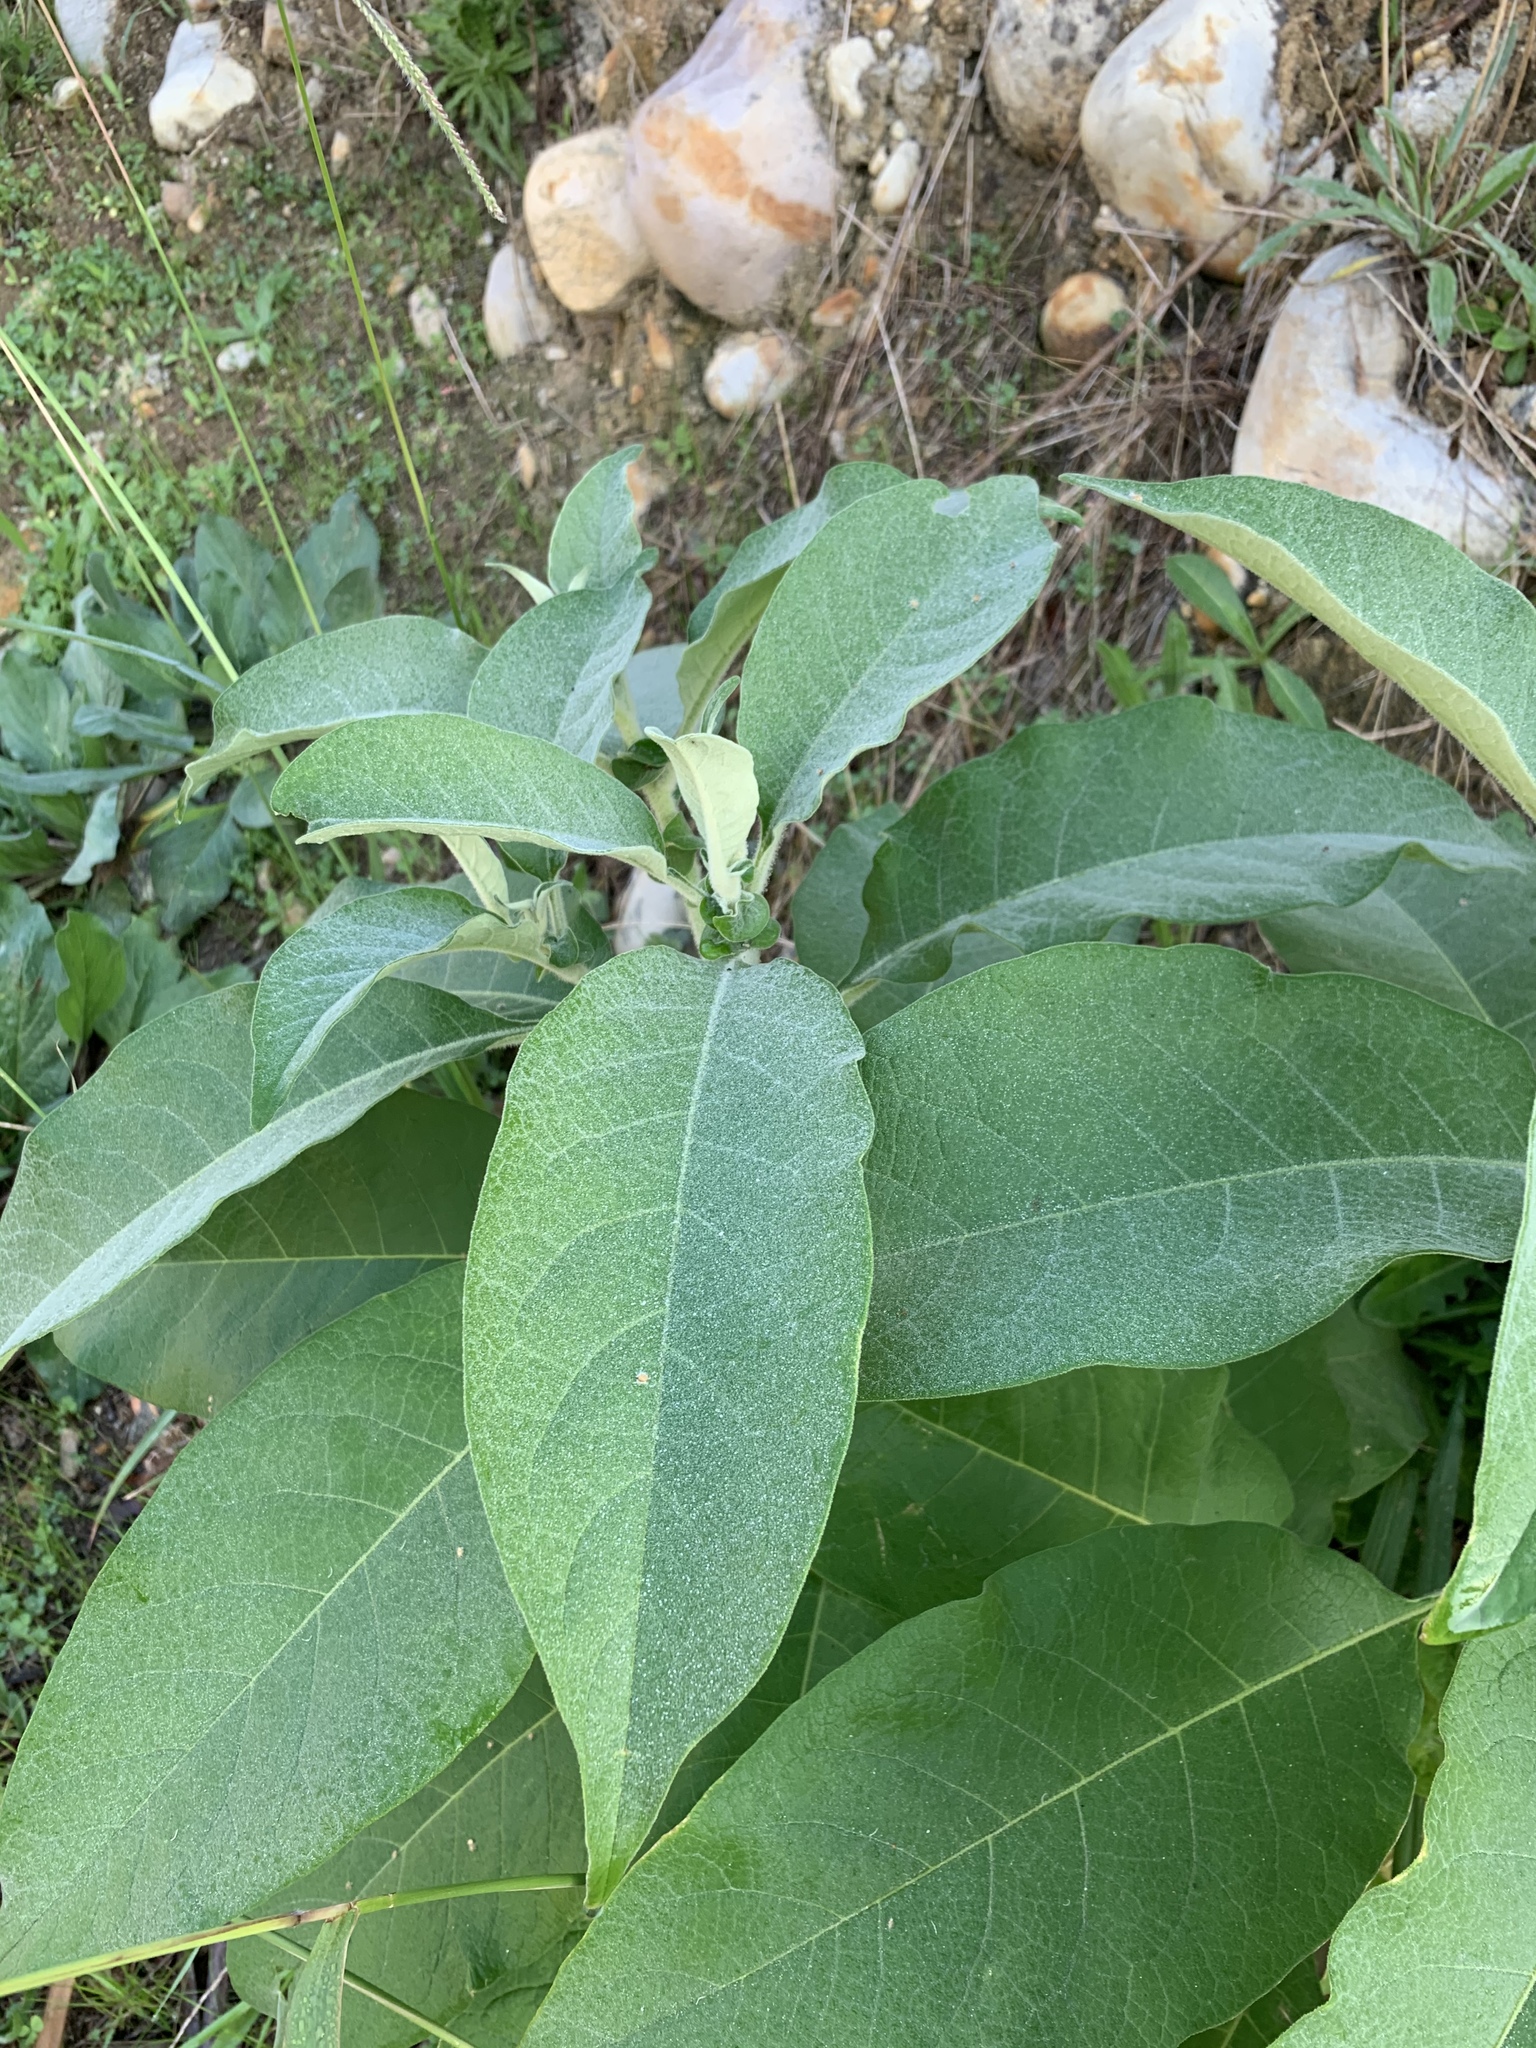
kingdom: Plantae
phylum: Tracheophyta
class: Magnoliopsida
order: Solanales
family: Solanaceae
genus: Solanum
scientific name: Solanum mauritianum
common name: Earleaf nightshade
